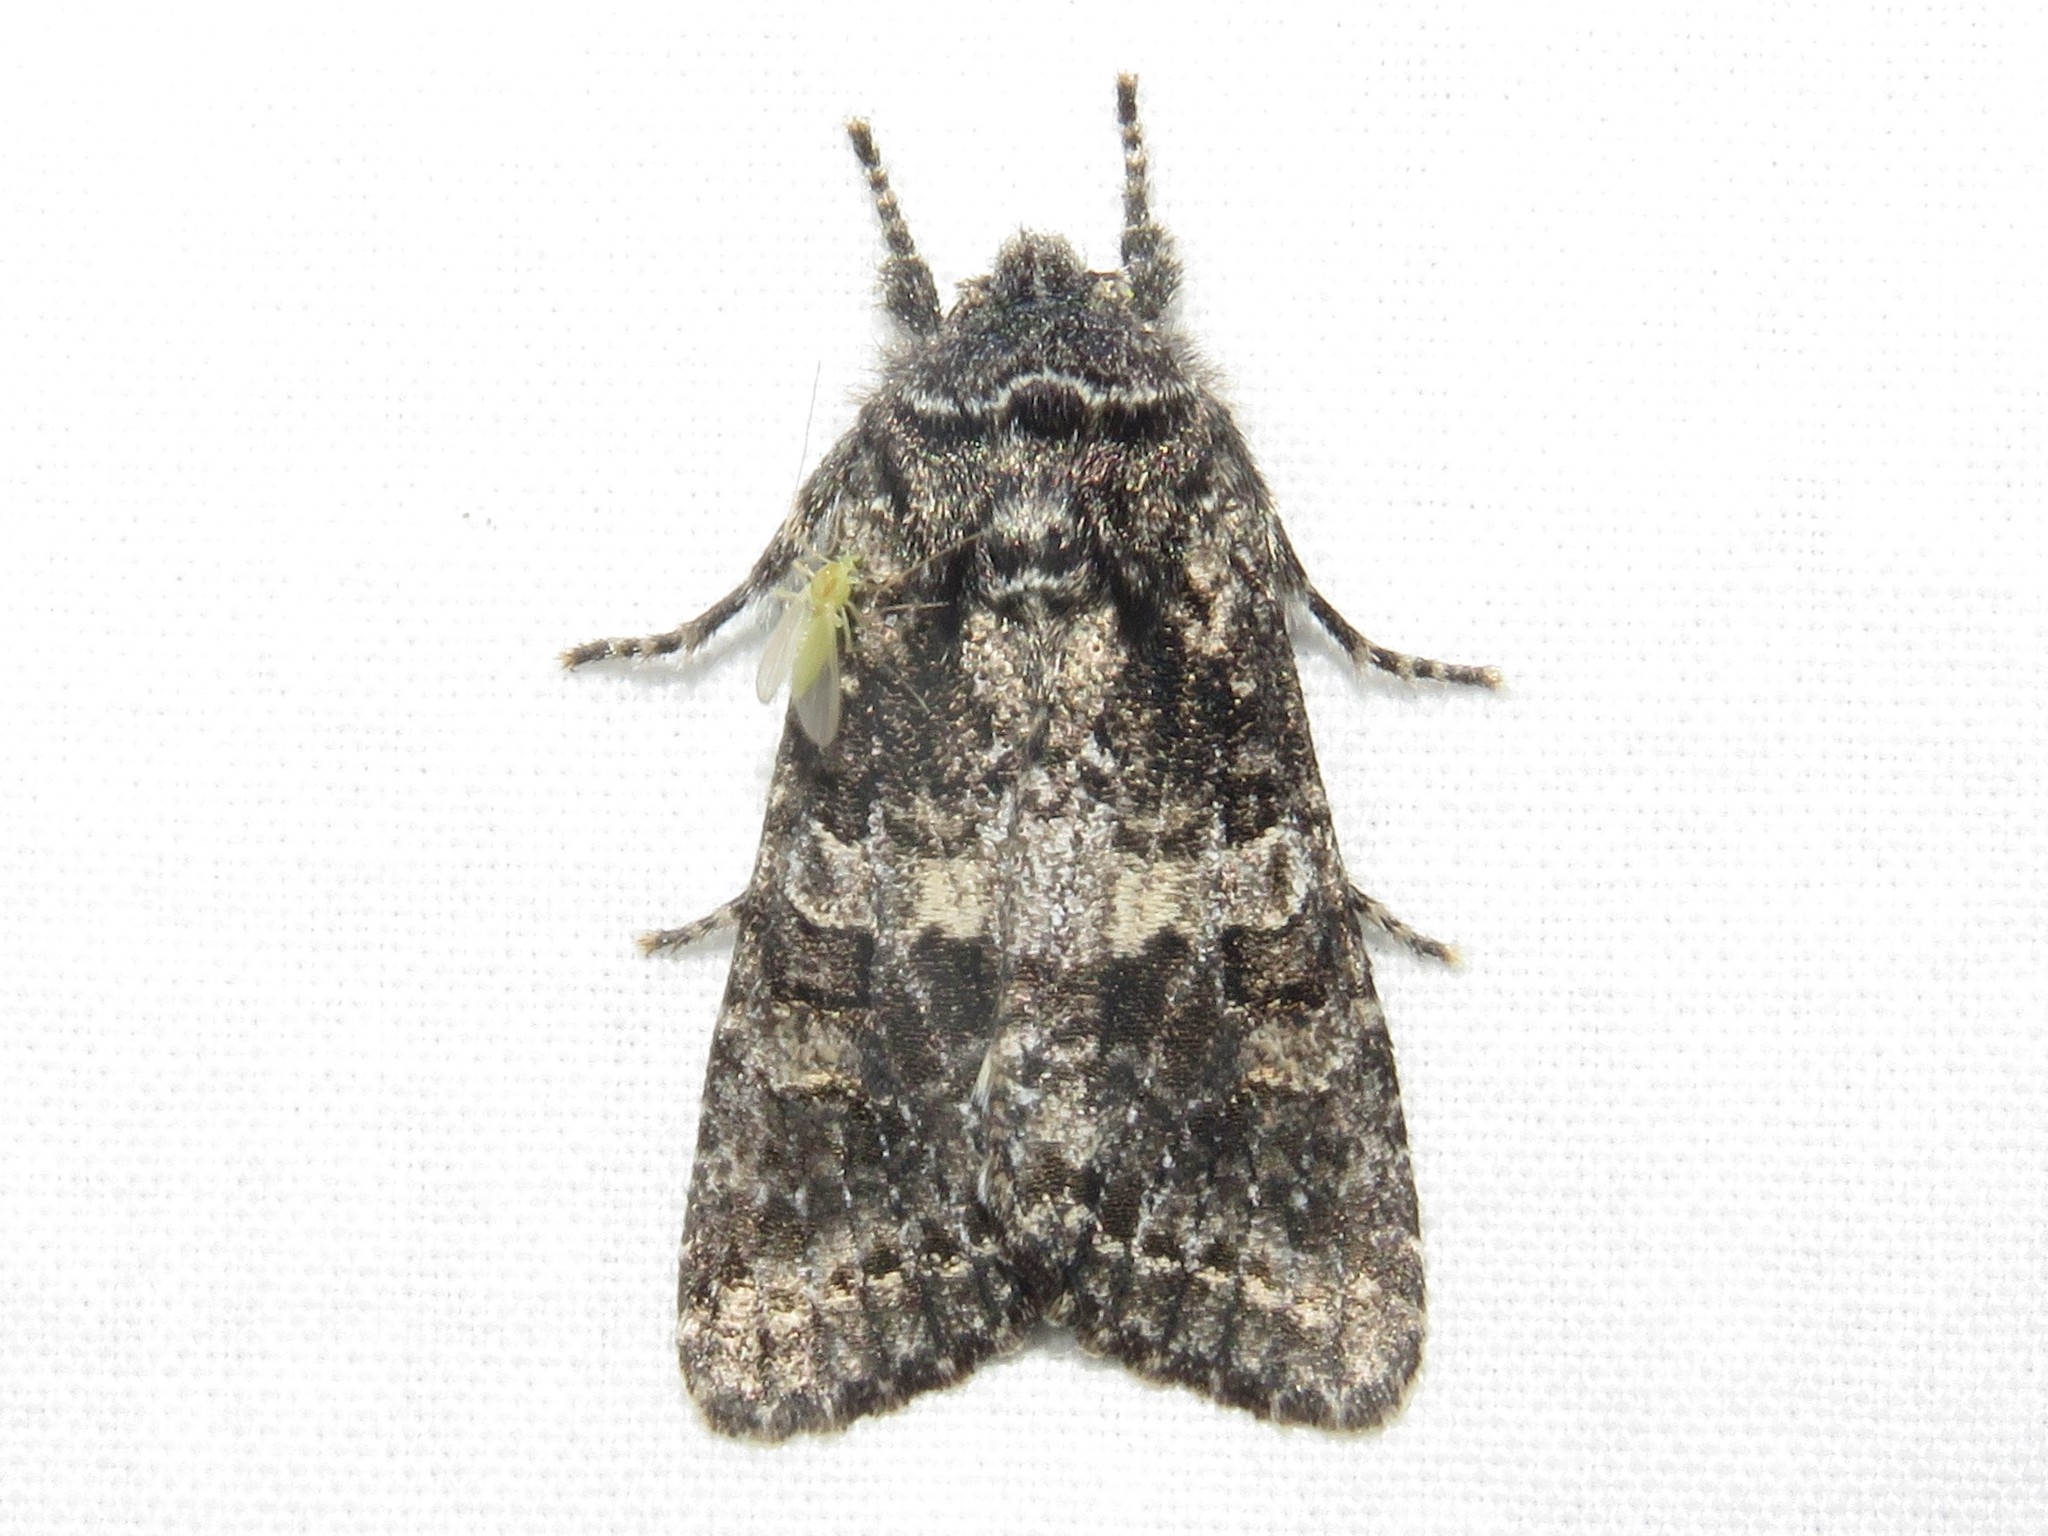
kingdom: Animalia
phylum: Arthropoda
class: Insecta
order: Lepidoptera
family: Noctuidae
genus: Egira
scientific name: Egira dolosa
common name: Lined black aspen cat.
